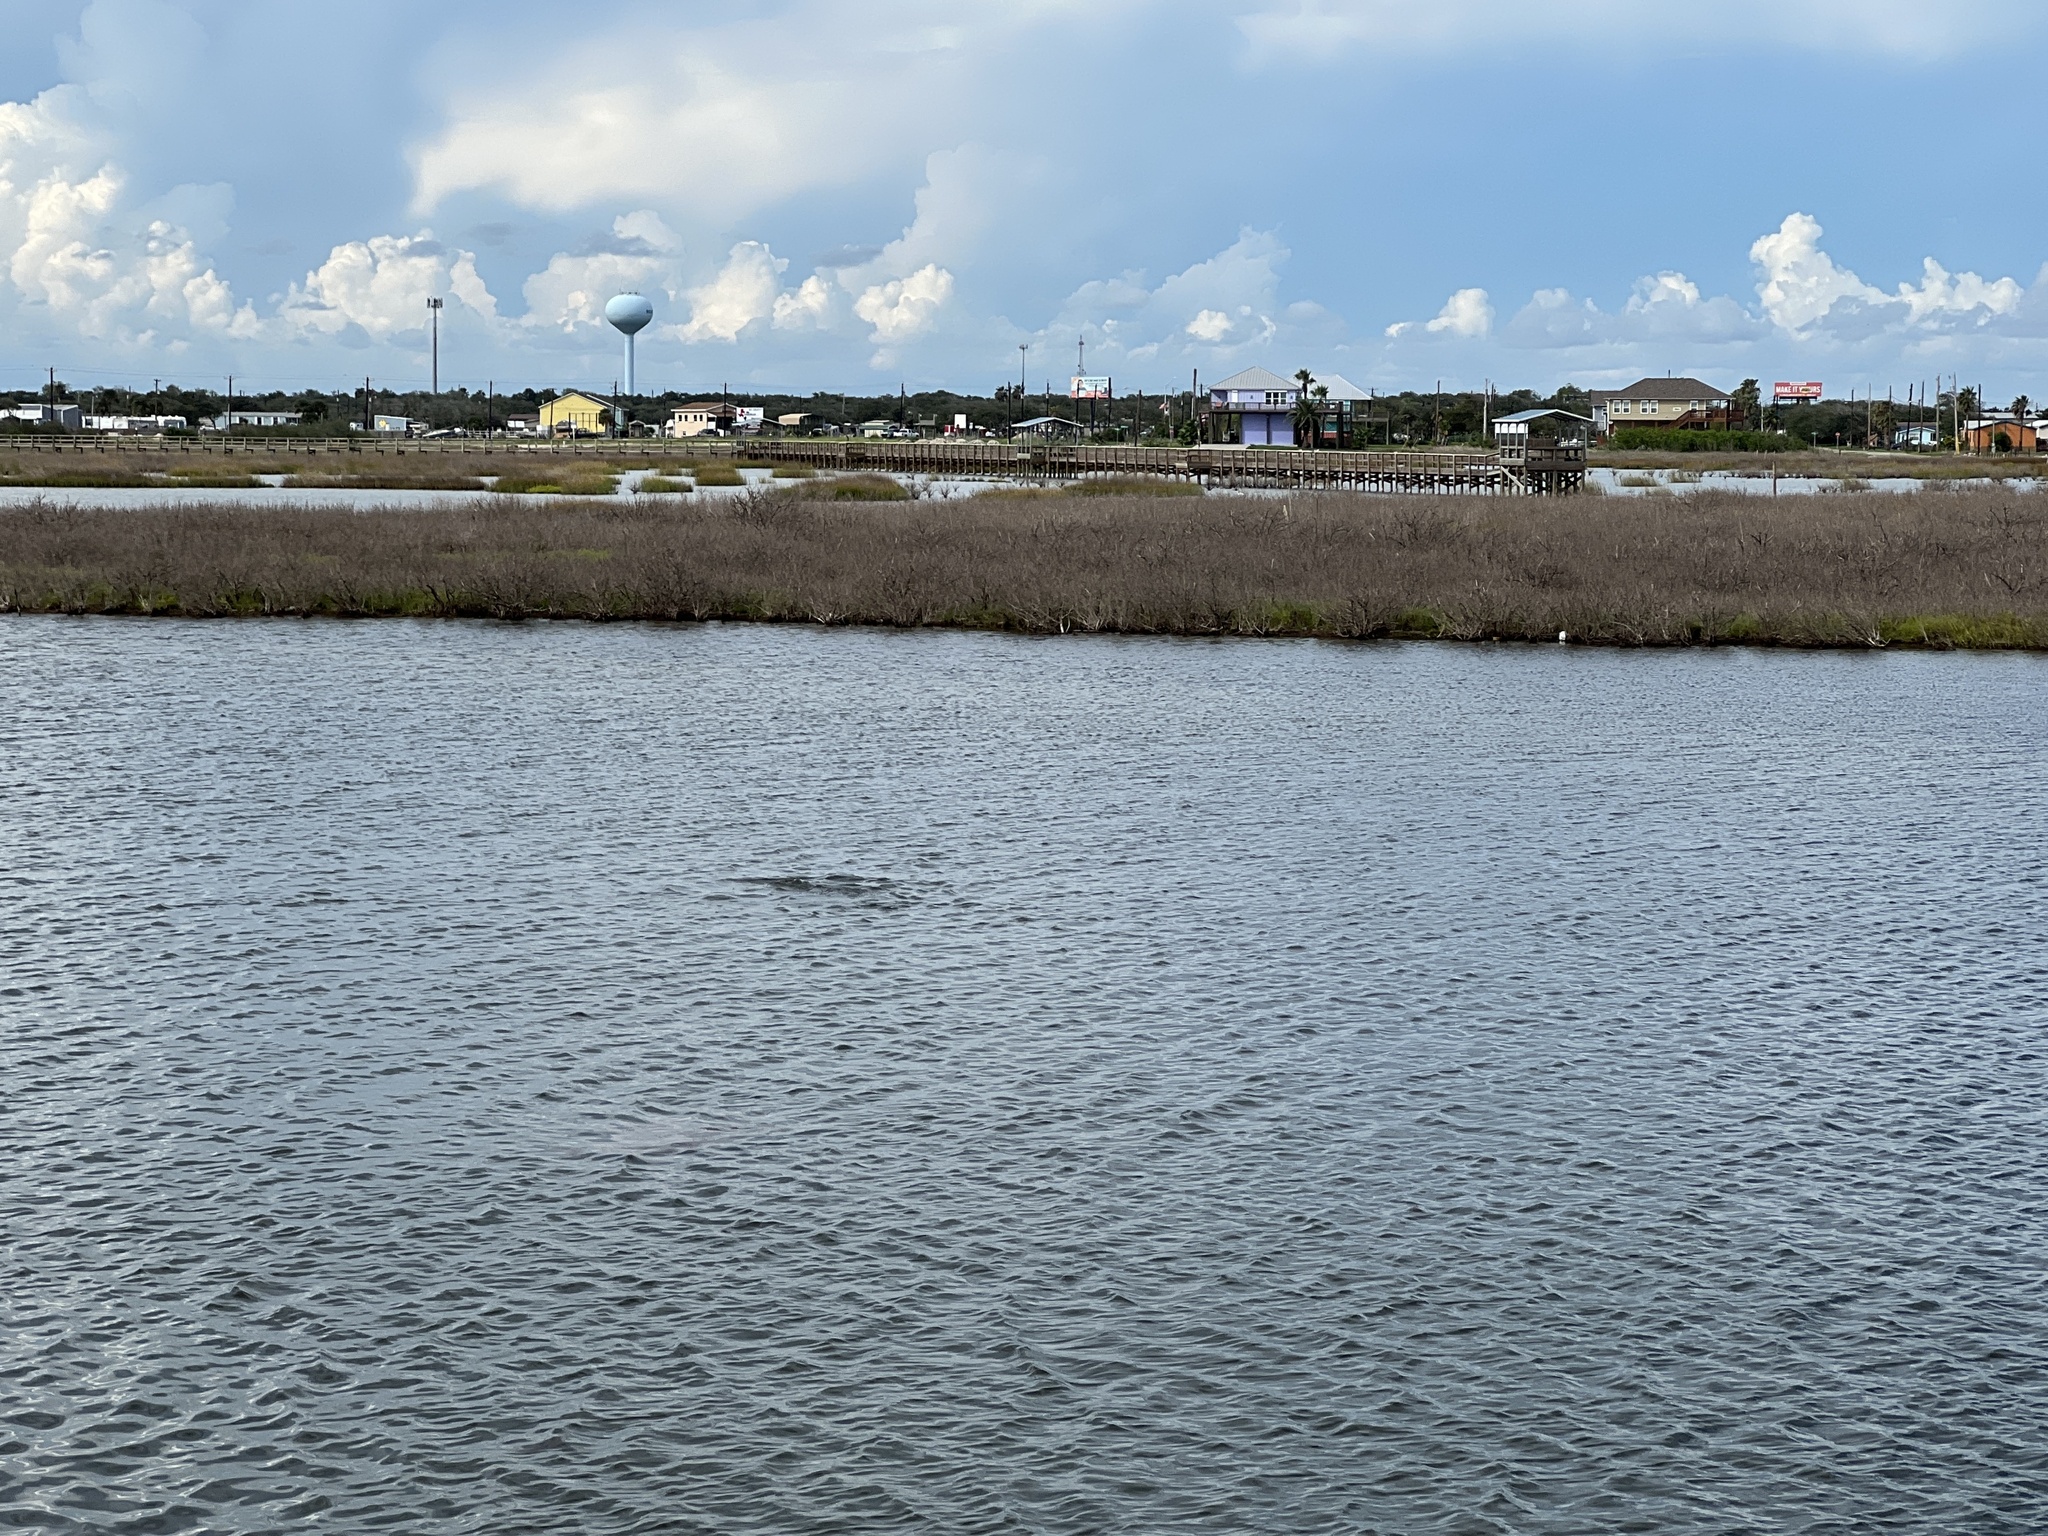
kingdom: Animalia
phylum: Chordata
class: Mammalia
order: Cetacea
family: Delphinidae
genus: Tursiops
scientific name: Tursiops truncatus
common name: Bottlenose dolphin
